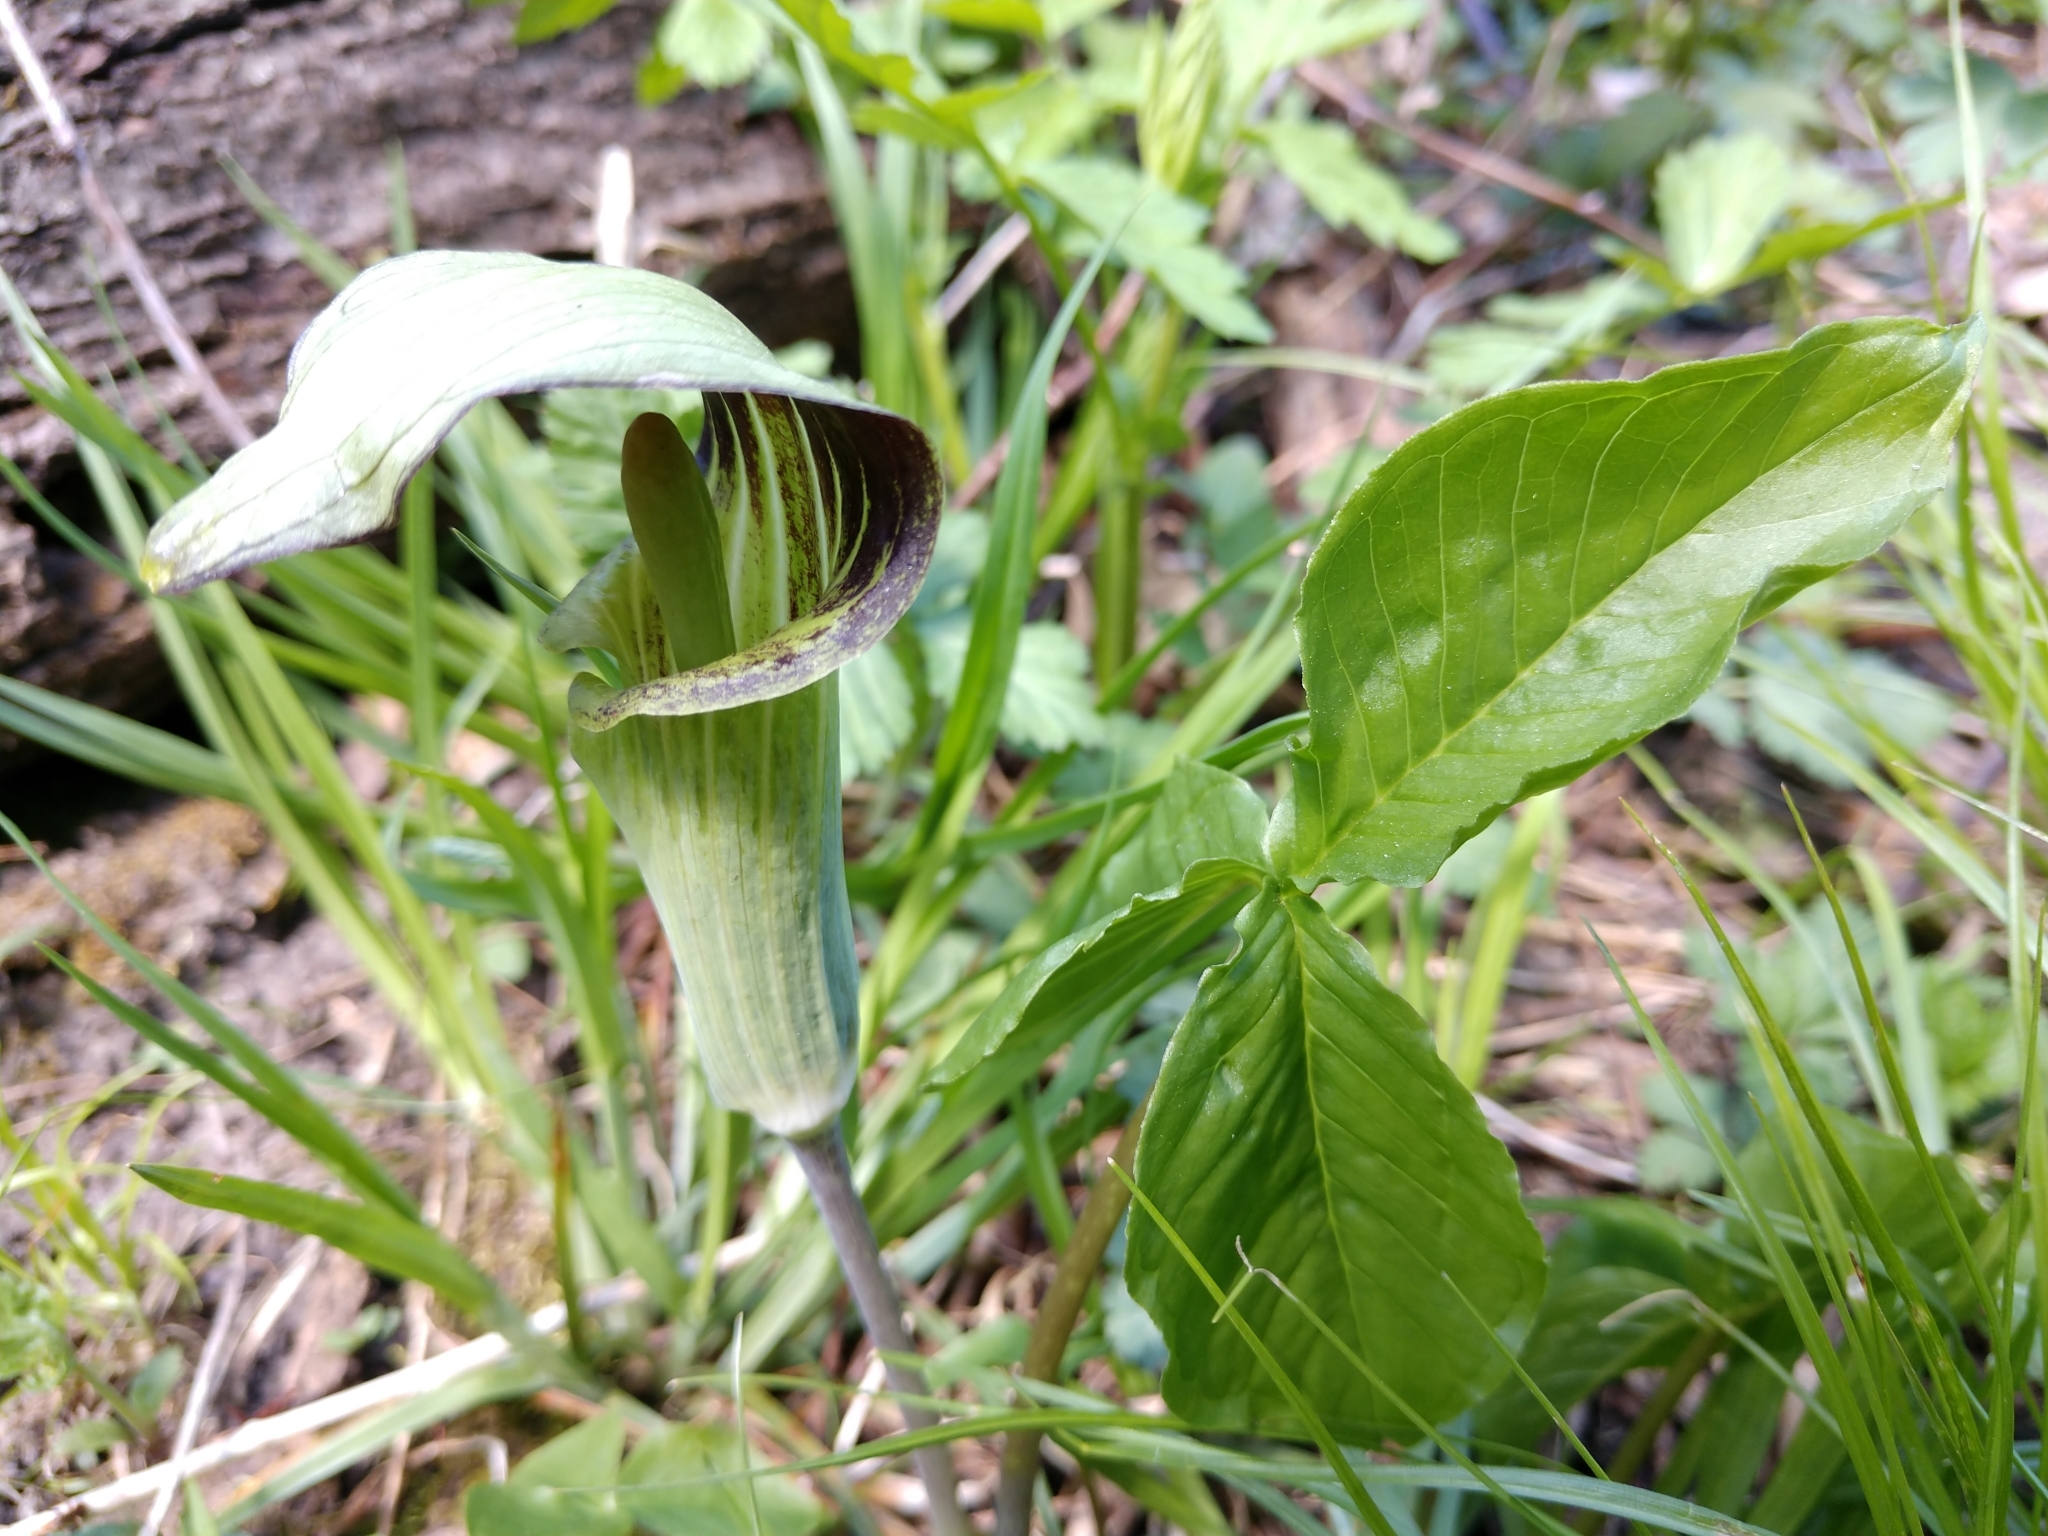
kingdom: Plantae
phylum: Tracheophyta
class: Liliopsida
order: Alismatales
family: Araceae
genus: Arisaema
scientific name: Arisaema triphyllum
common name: Jack-in-the-pulpit
